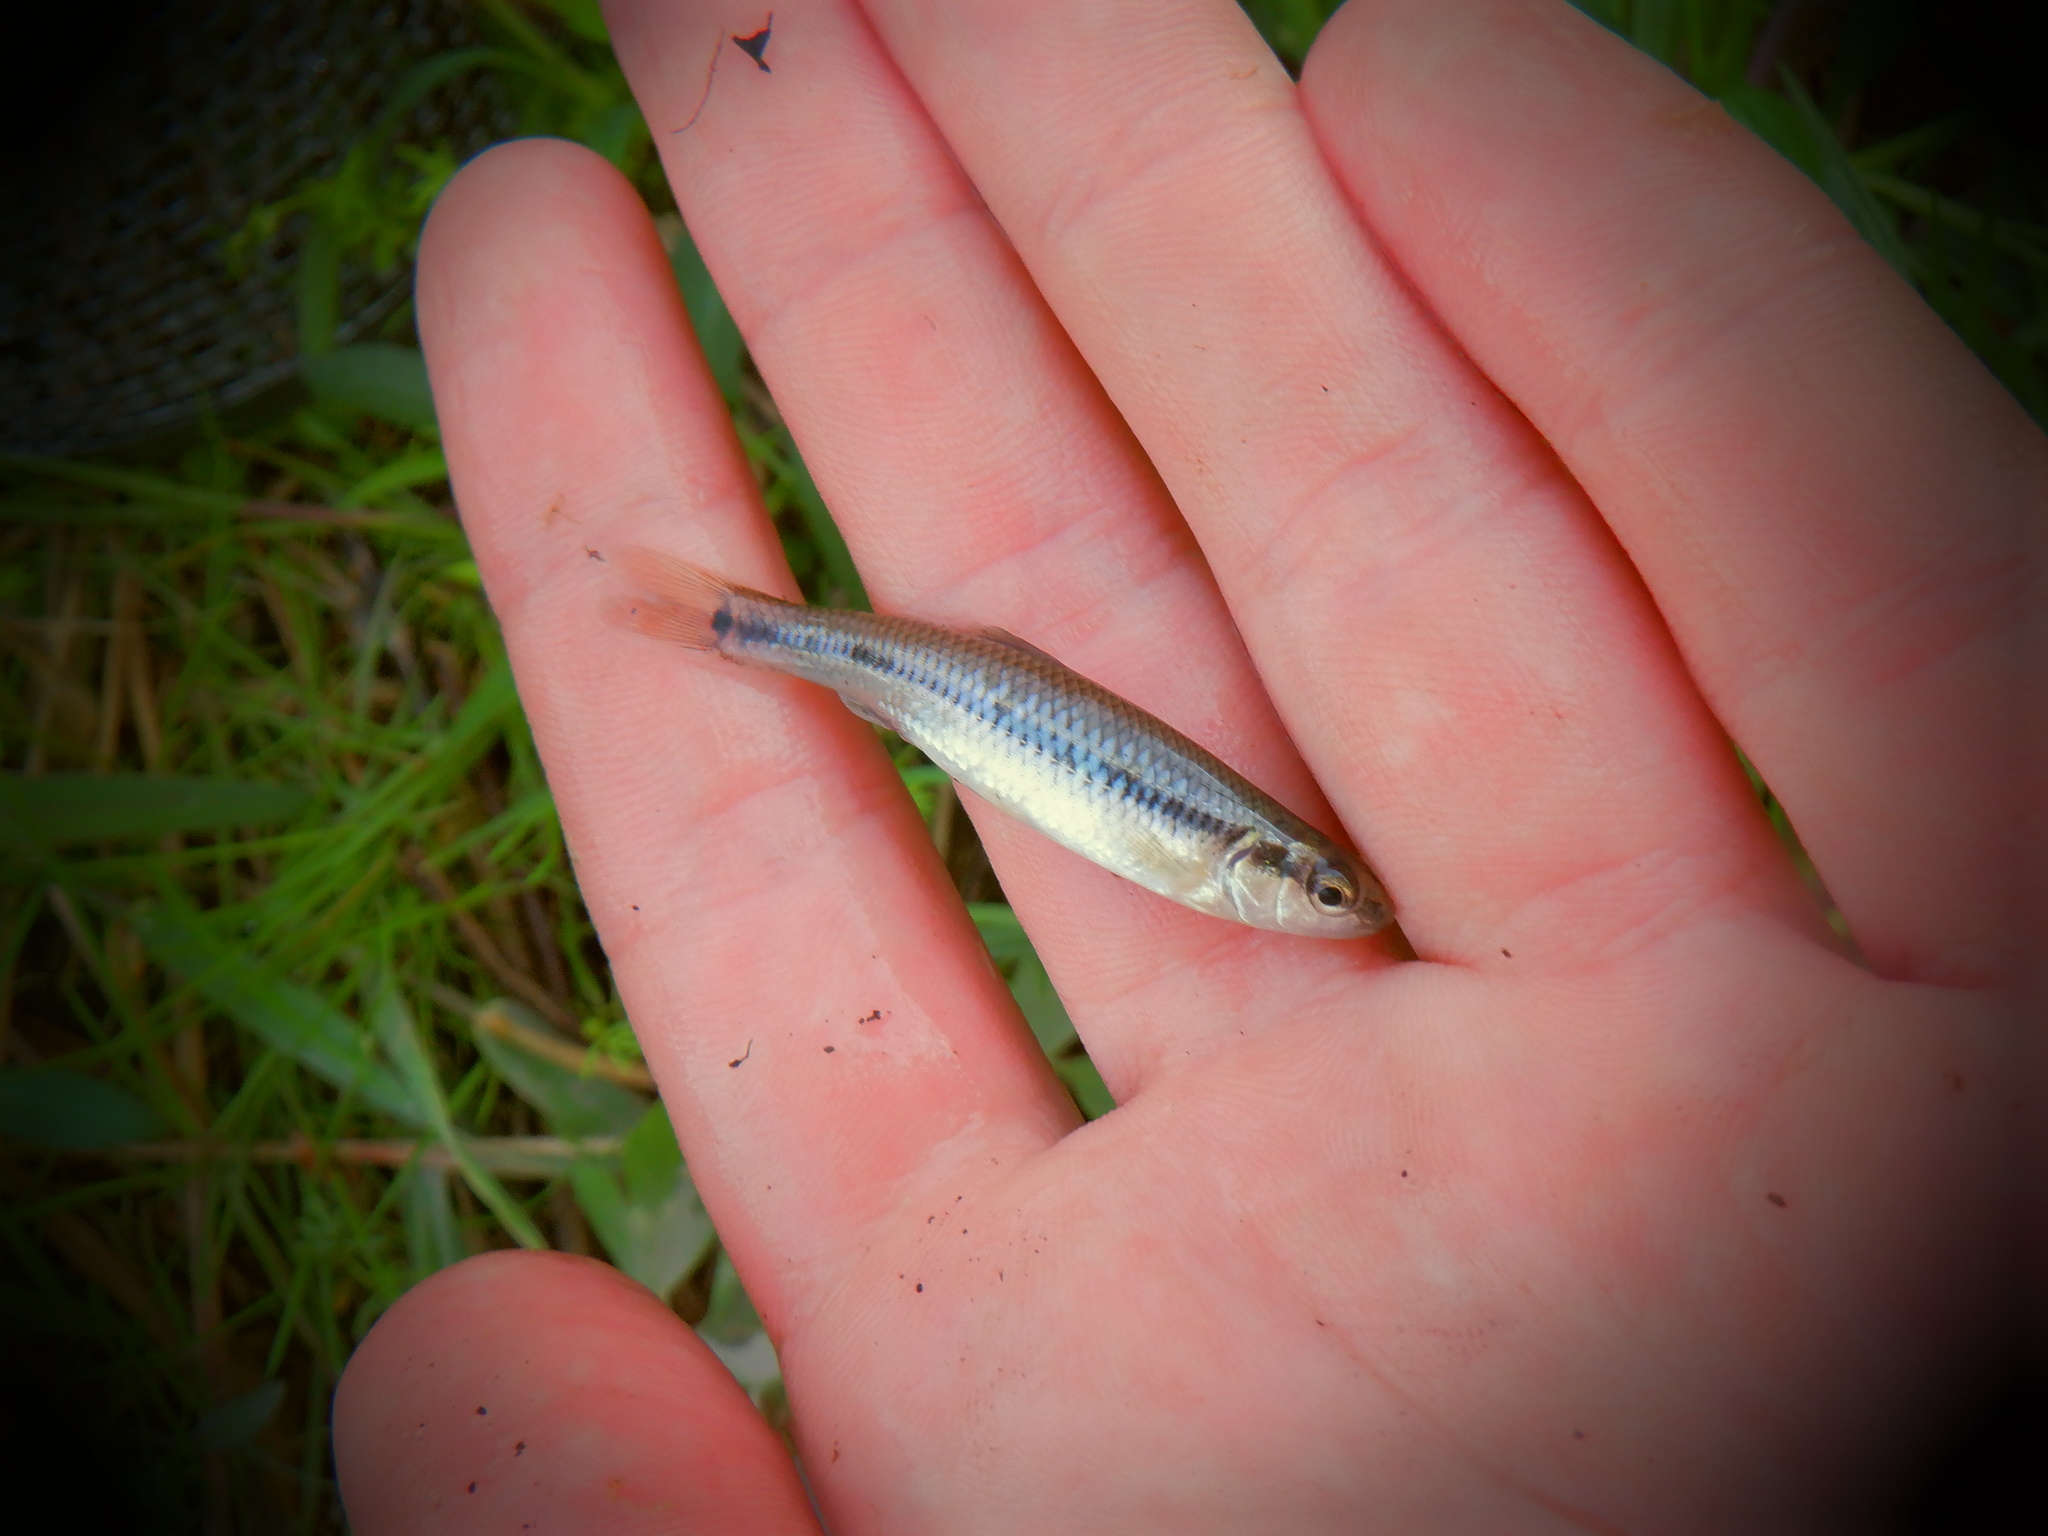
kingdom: Animalia
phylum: Chordata
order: Cypriniformes
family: Cyprinidae
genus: Pimephales
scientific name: Pimephales notatus
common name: Bluntnose minnow
